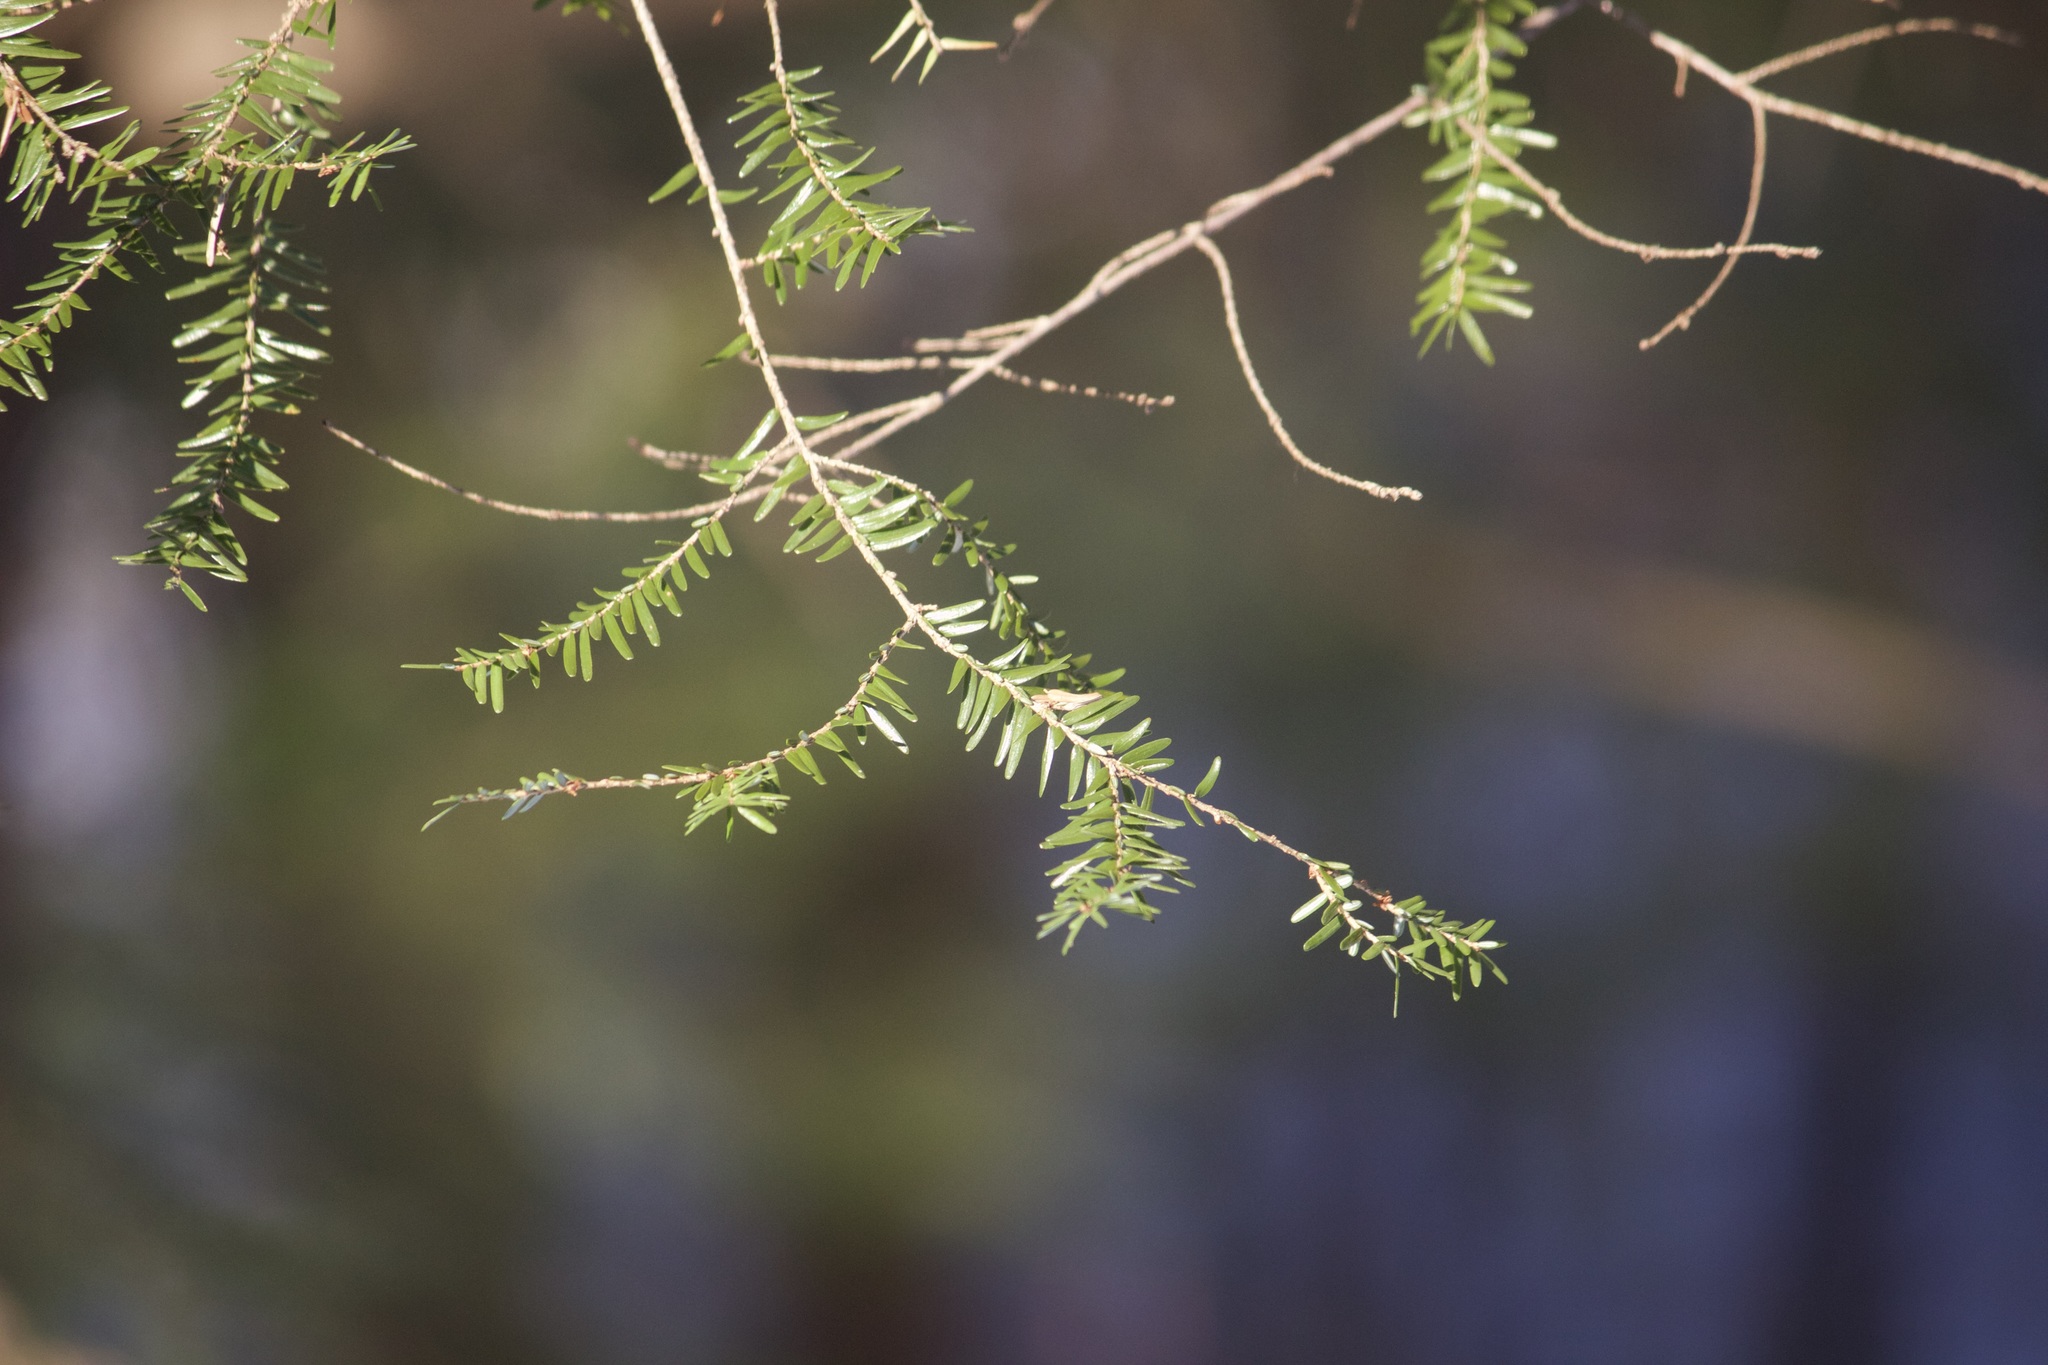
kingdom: Plantae
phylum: Tracheophyta
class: Pinopsida
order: Pinales
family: Pinaceae
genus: Tsuga
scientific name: Tsuga canadensis
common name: Eastern hemlock
